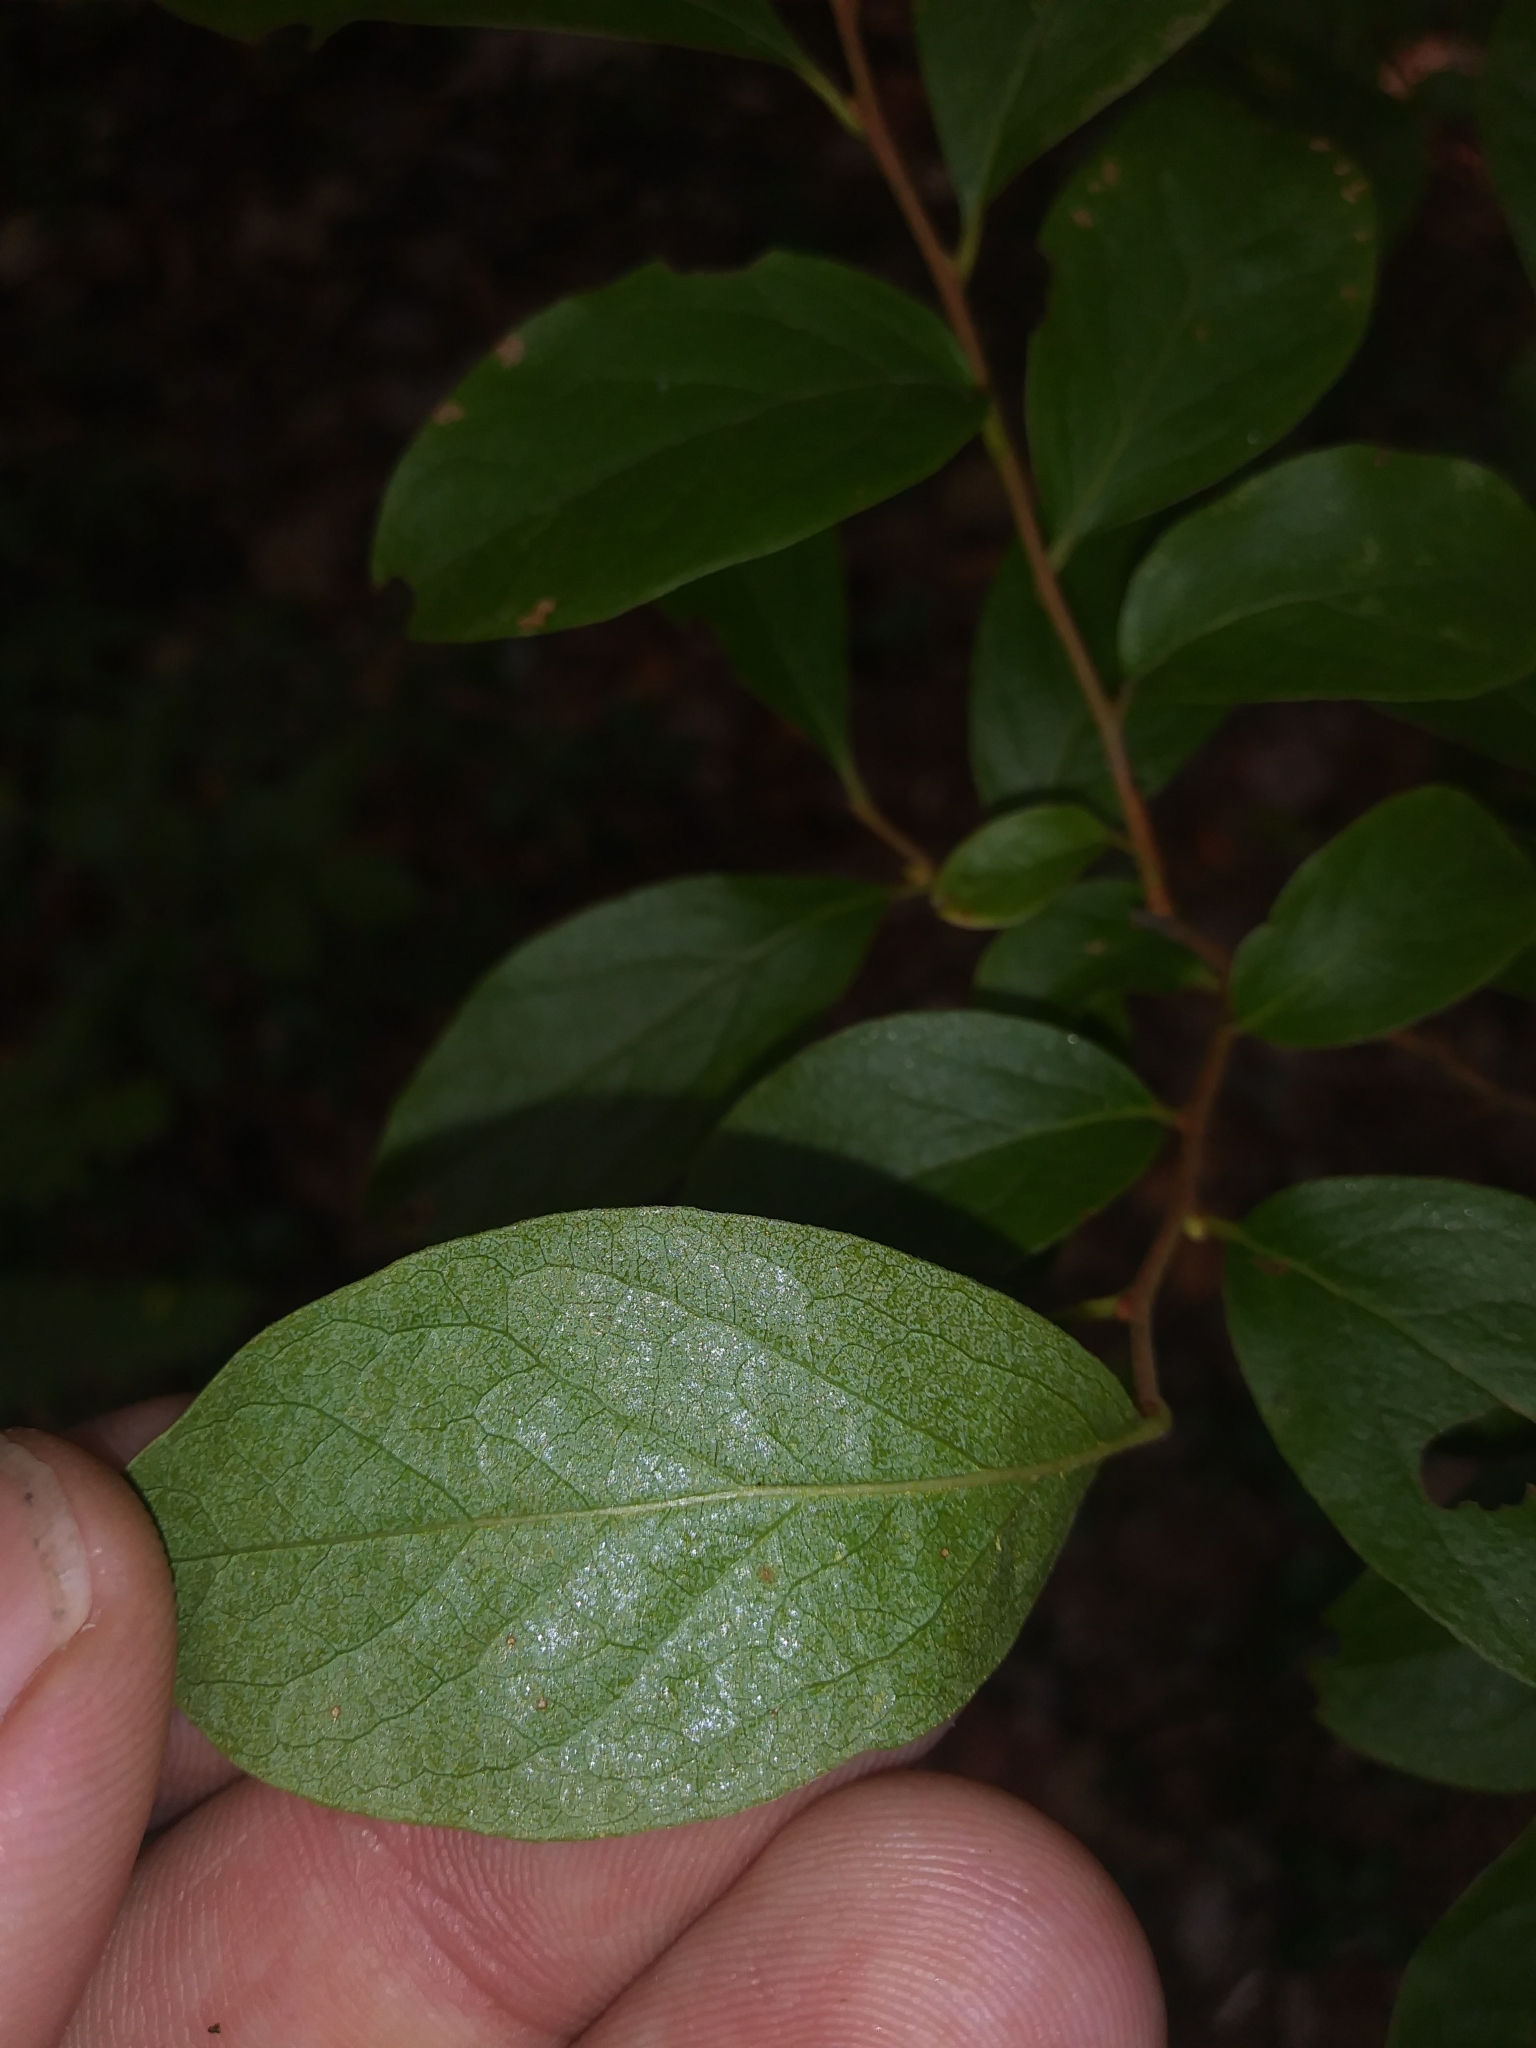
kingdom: Plantae
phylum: Tracheophyta
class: Magnoliopsida
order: Ericales
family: Ericaceae
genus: Gaylussacia
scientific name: Gaylussacia baccata
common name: Black huckleberry
